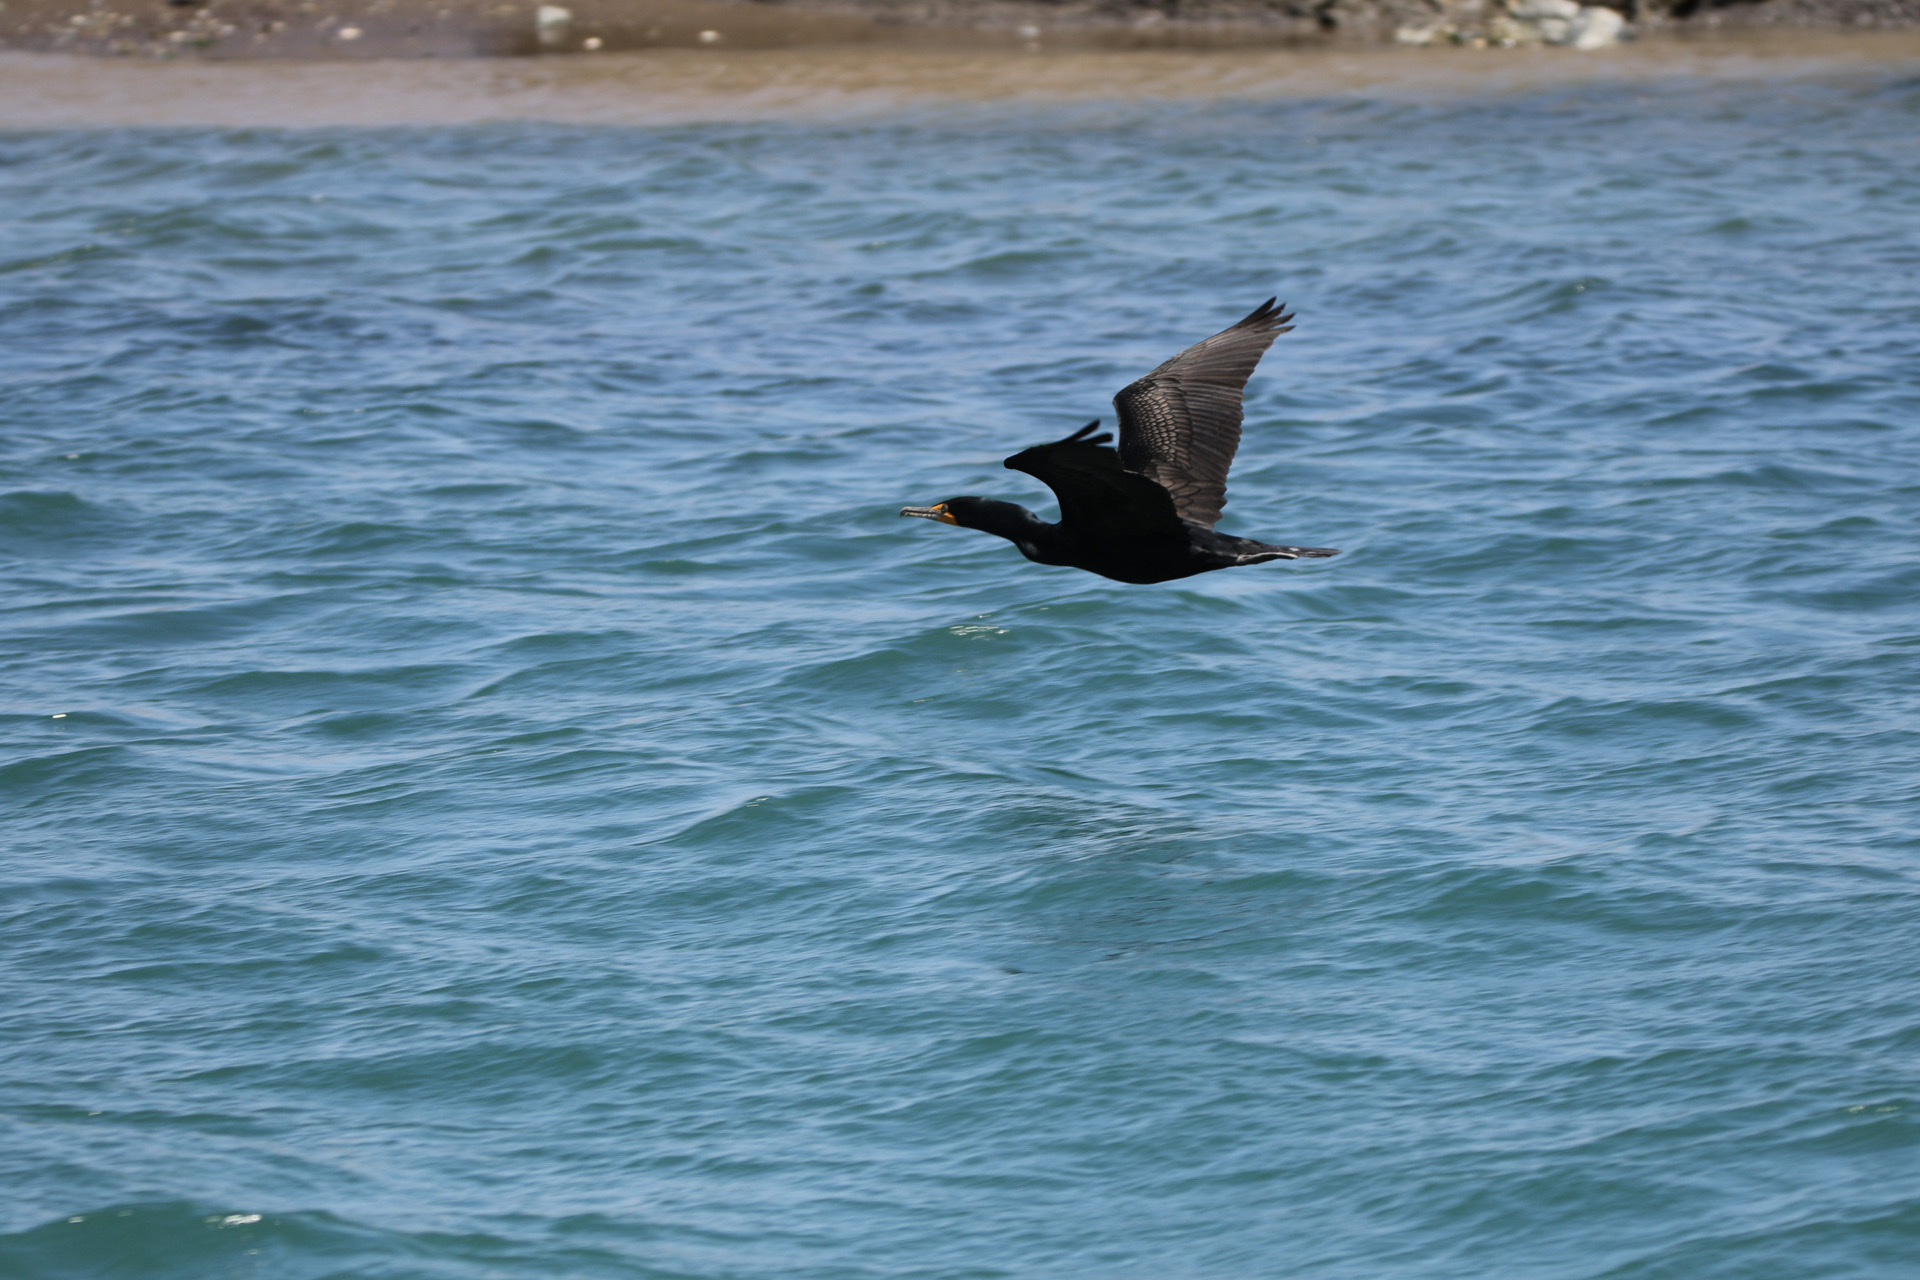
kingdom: Animalia
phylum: Chordata
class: Aves
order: Suliformes
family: Phalacrocoracidae
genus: Phalacrocorax
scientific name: Phalacrocorax auritus
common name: Double-crested cormorant
